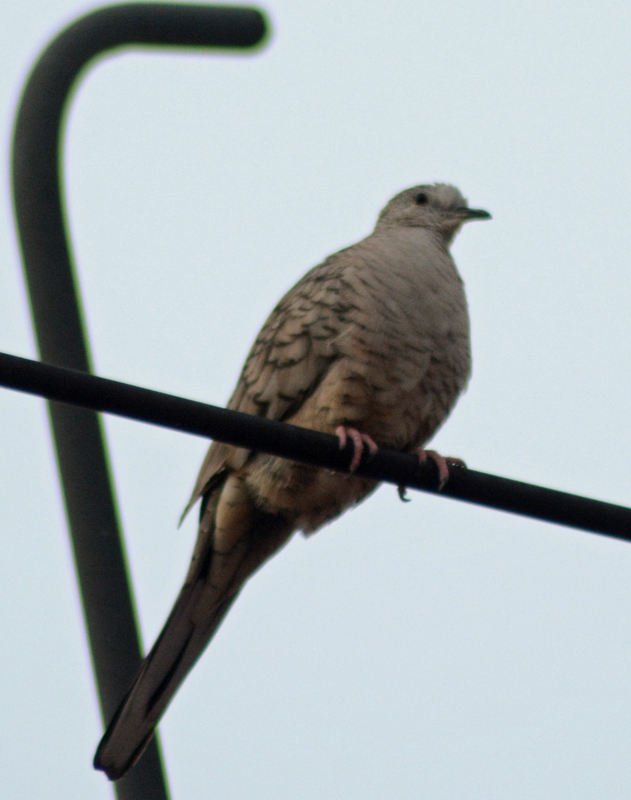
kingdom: Animalia
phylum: Chordata
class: Aves
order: Columbiformes
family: Columbidae
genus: Columbina
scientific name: Columbina inca
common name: Inca dove
